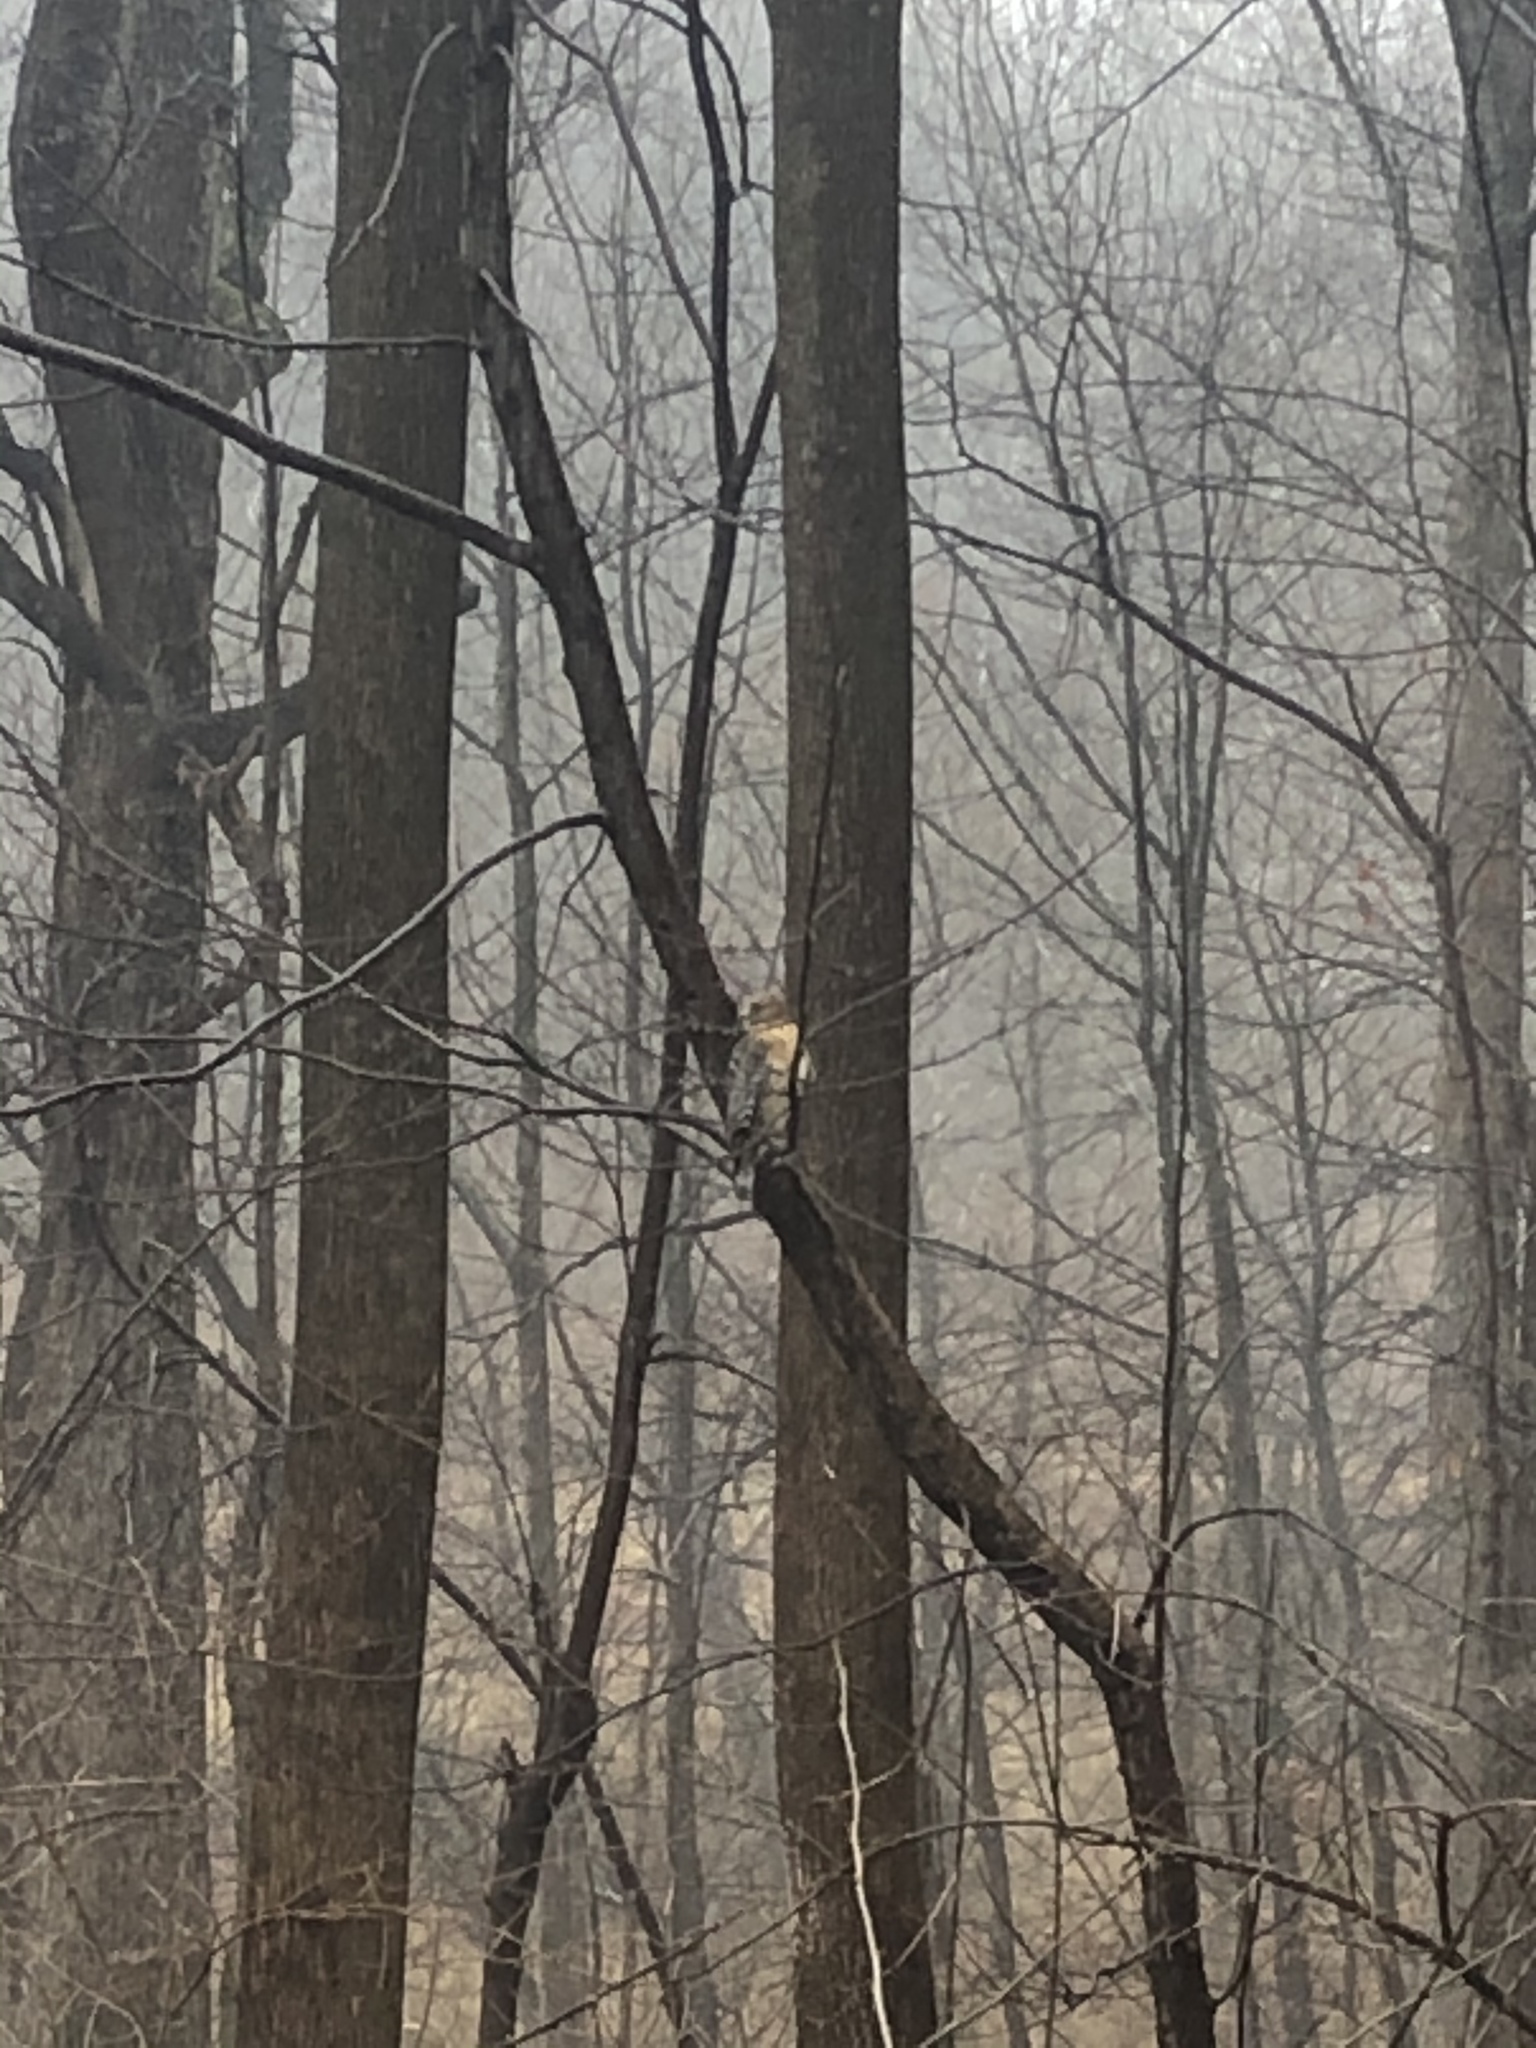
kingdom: Animalia
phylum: Chordata
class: Aves
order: Accipitriformes
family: Accipitridae
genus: Buteo
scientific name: Buteo lineatus
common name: Red-shouldered hawk
